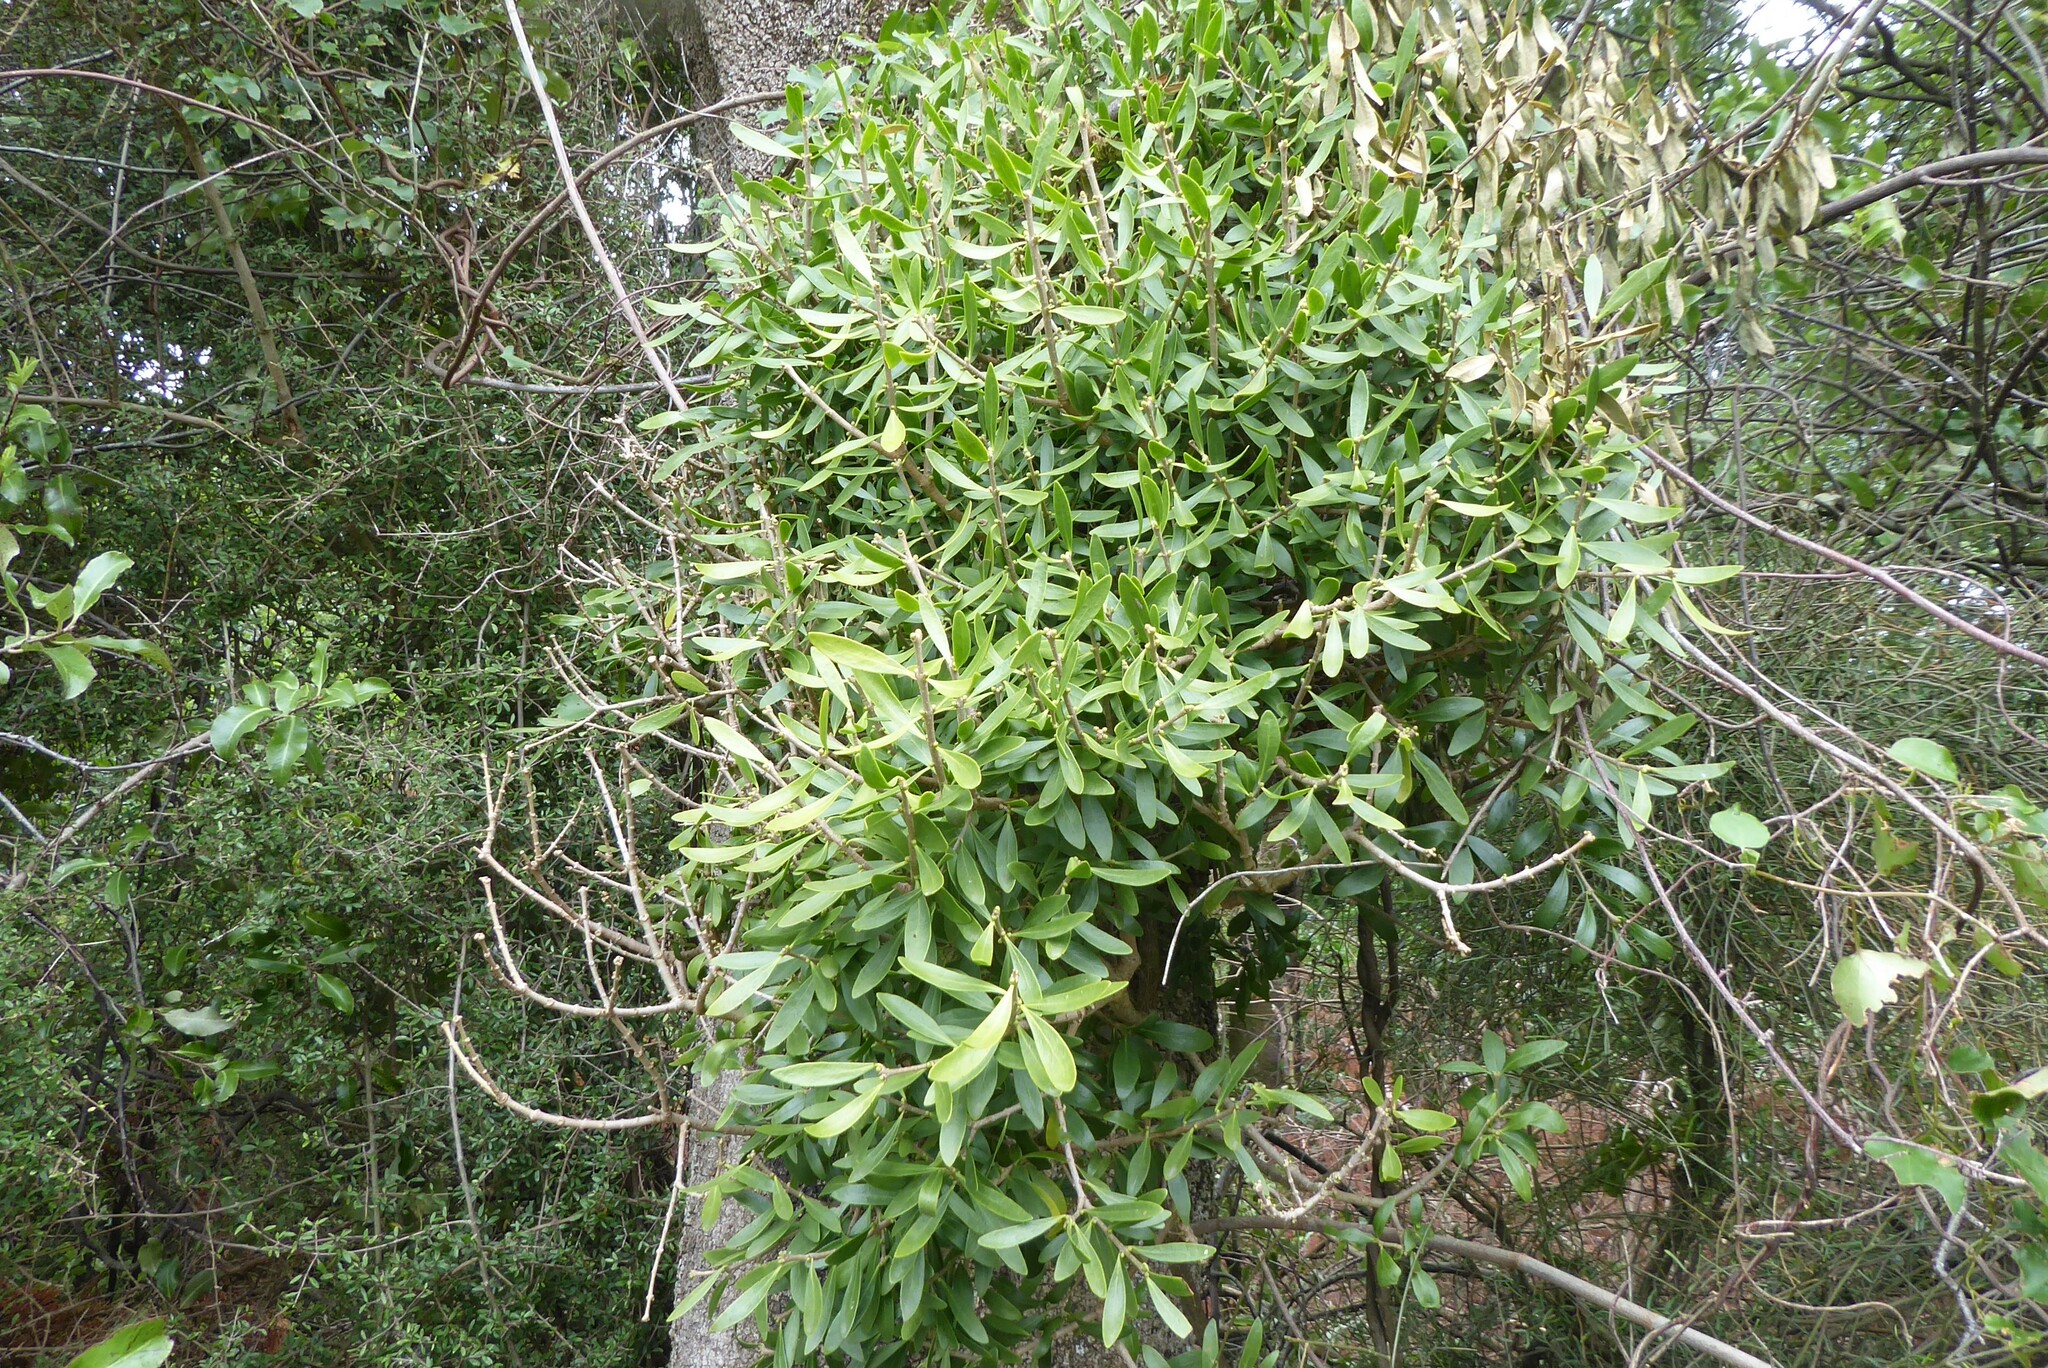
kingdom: Plantae
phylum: Tracheophyta
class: Magnoliopsida
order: Santalales
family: Loranthaceae
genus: Tupeia
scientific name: Tupeia antarctica
